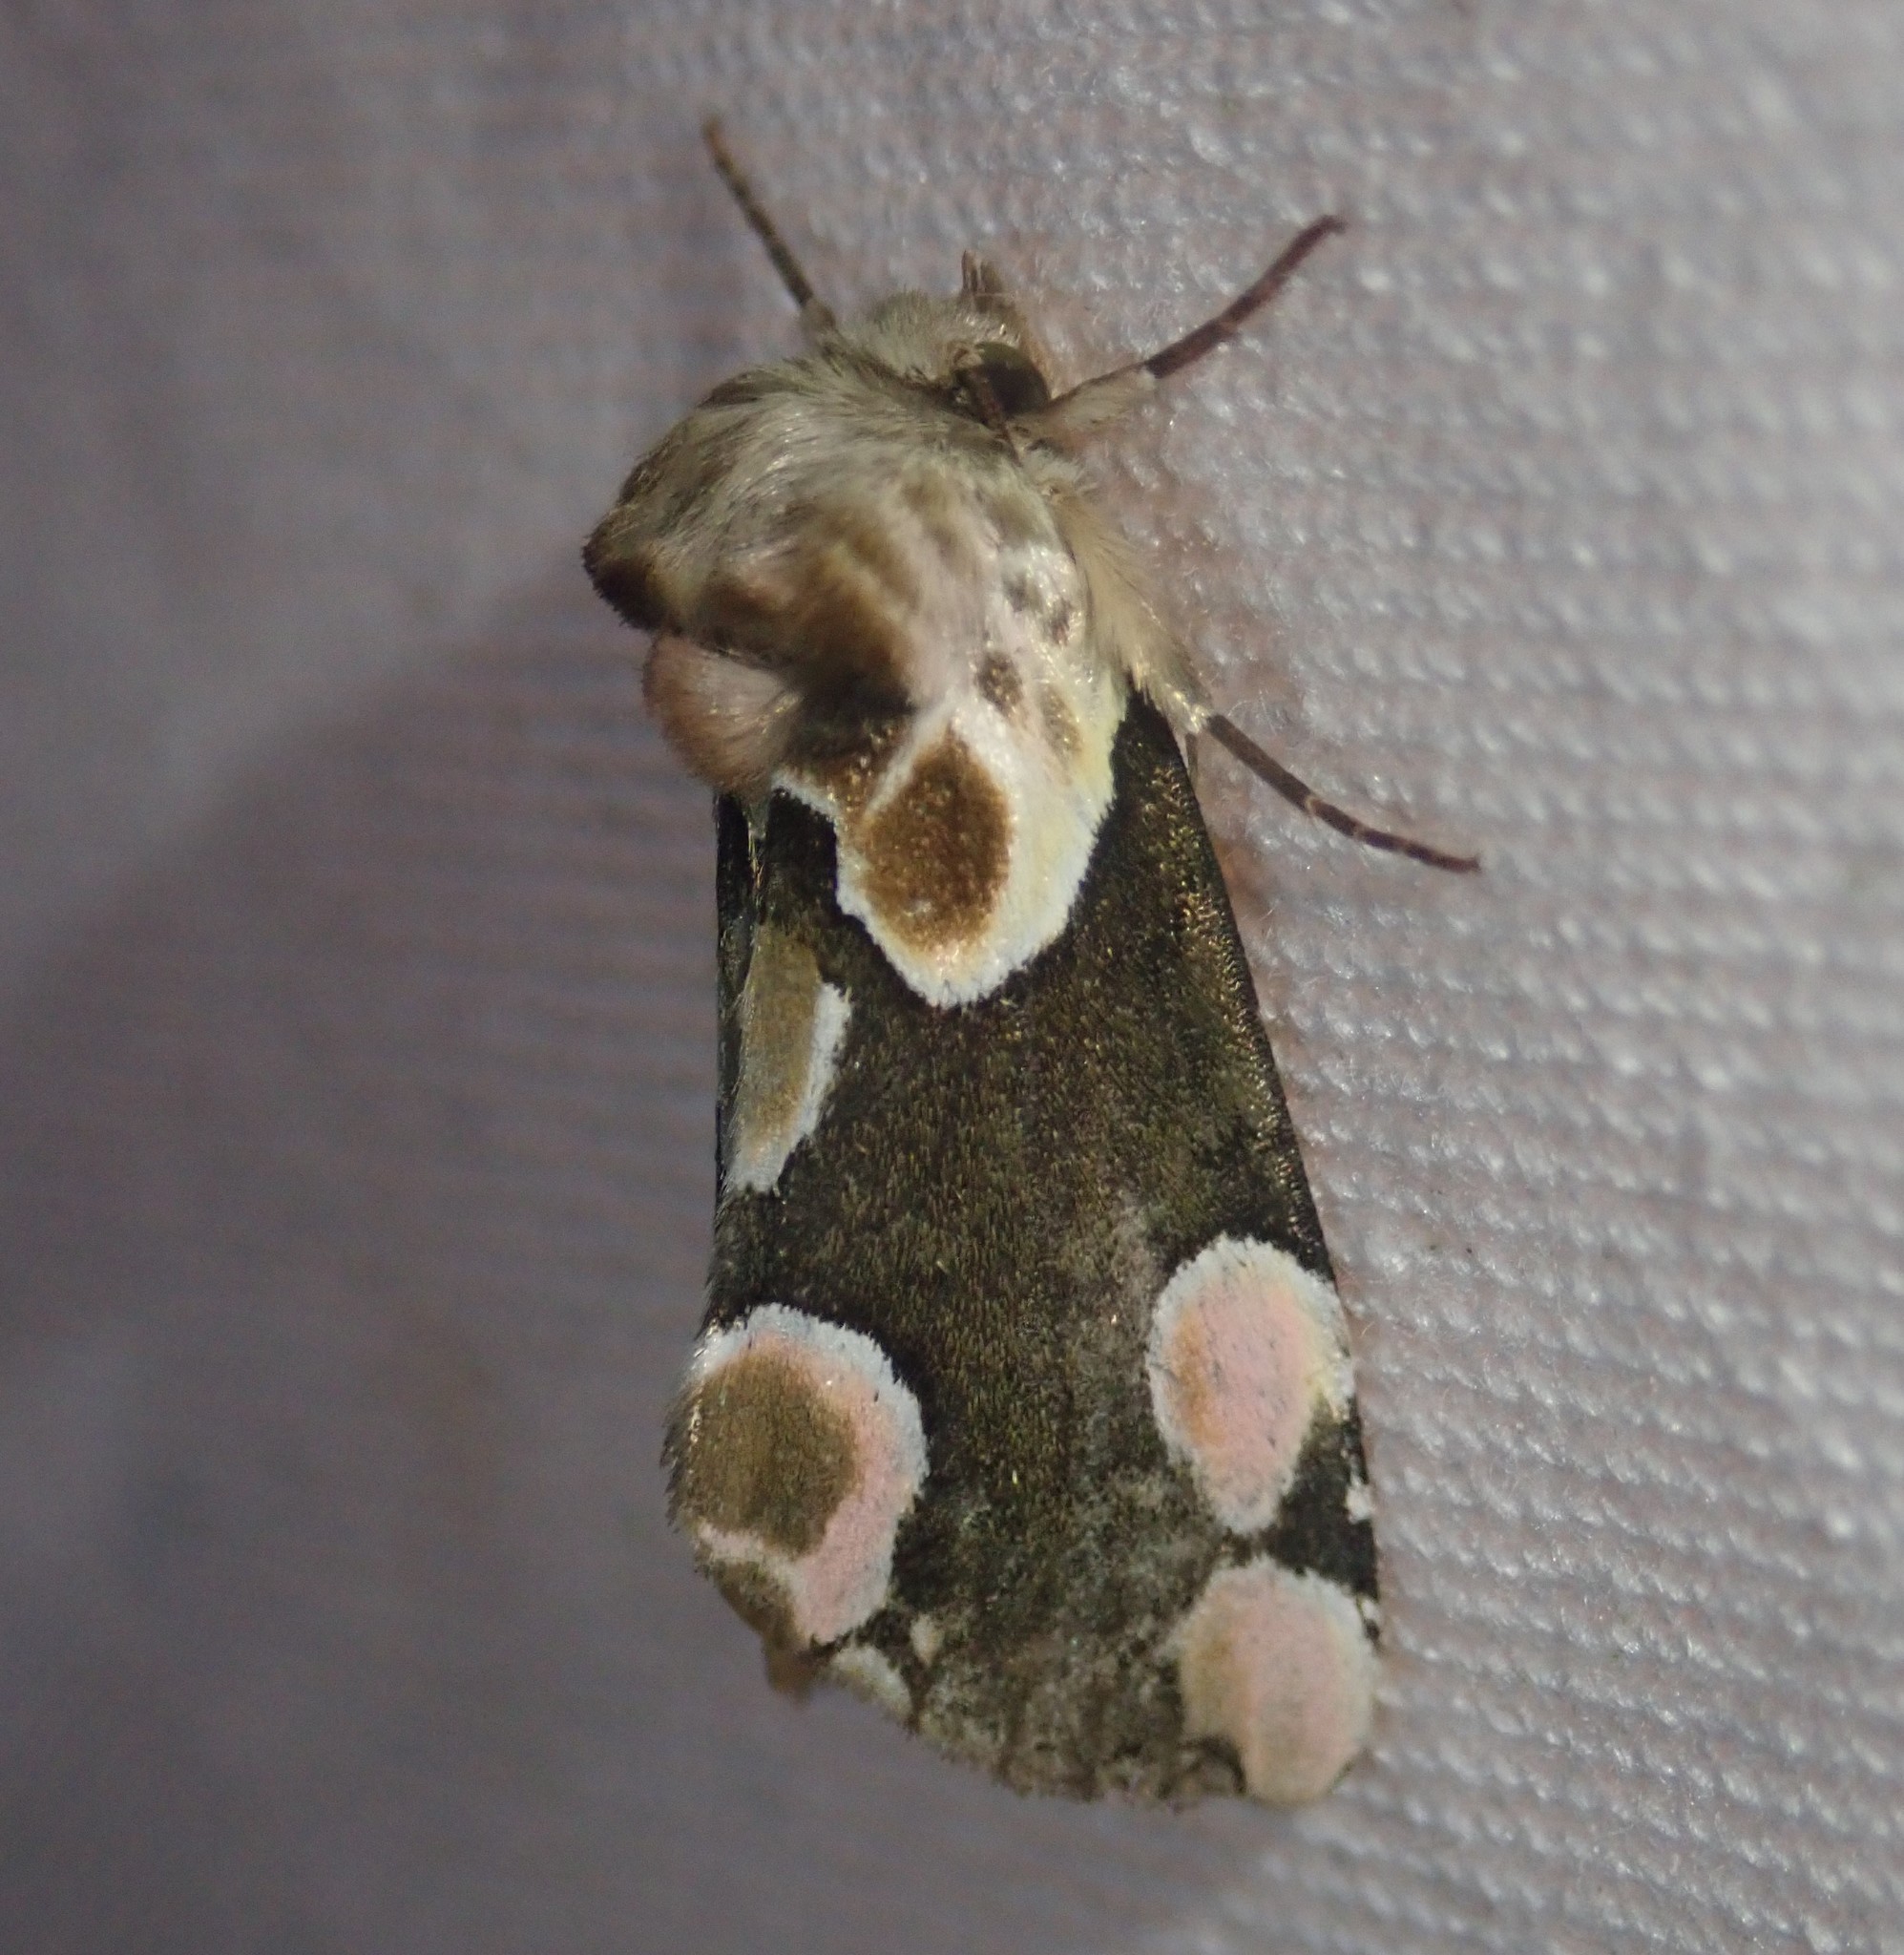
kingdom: Animalia
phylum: Arthropoda
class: Insecta
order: Lepidoptera
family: Drepanidae
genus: Thyatira
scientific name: Thyatira batis
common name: Peach blossom
